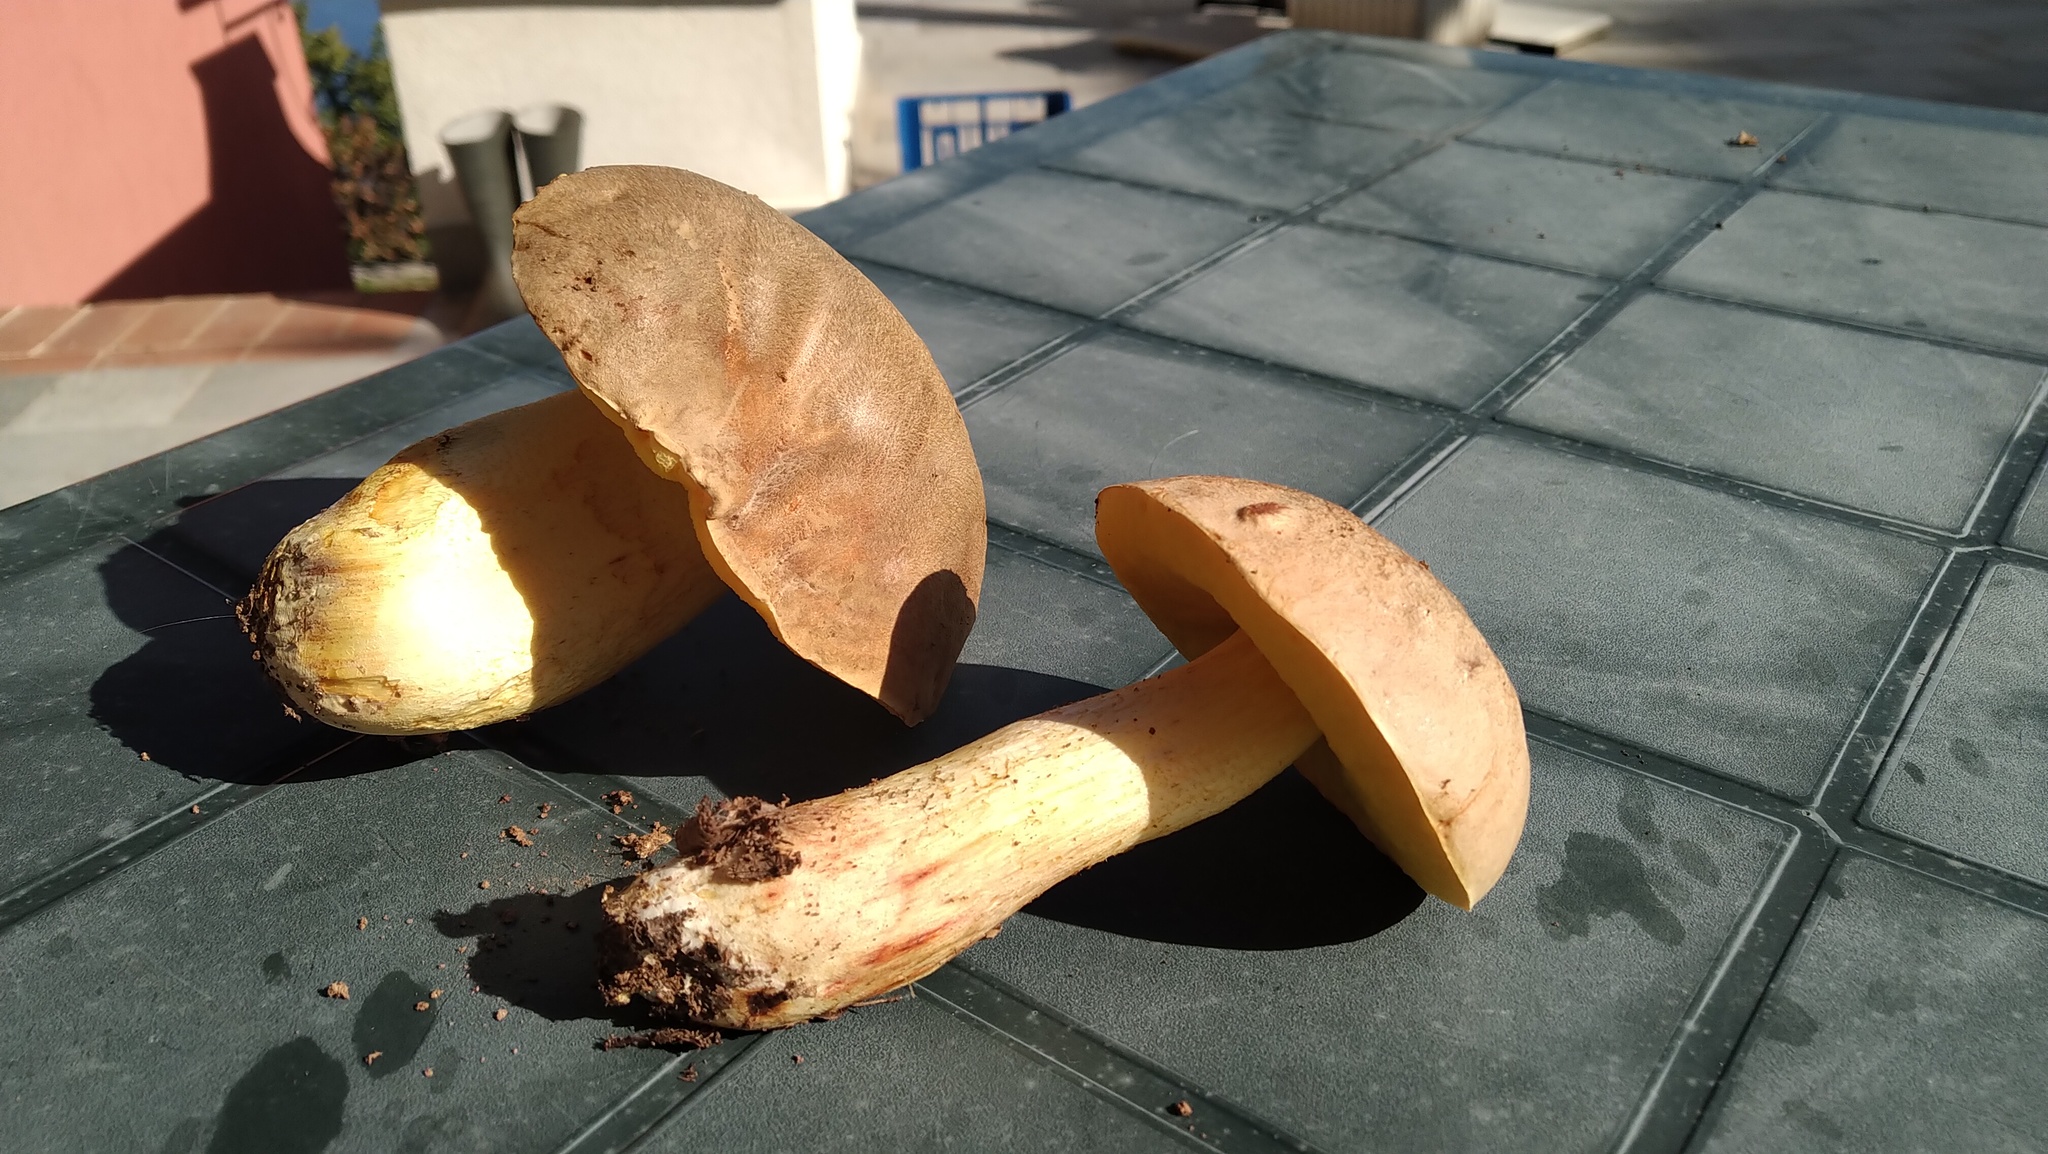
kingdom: Fungi
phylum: Basidiomycota
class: Agaricomycetes
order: Boletales
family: Boletaceae
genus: Hemileccinum
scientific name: Hemileccinum impolitum
